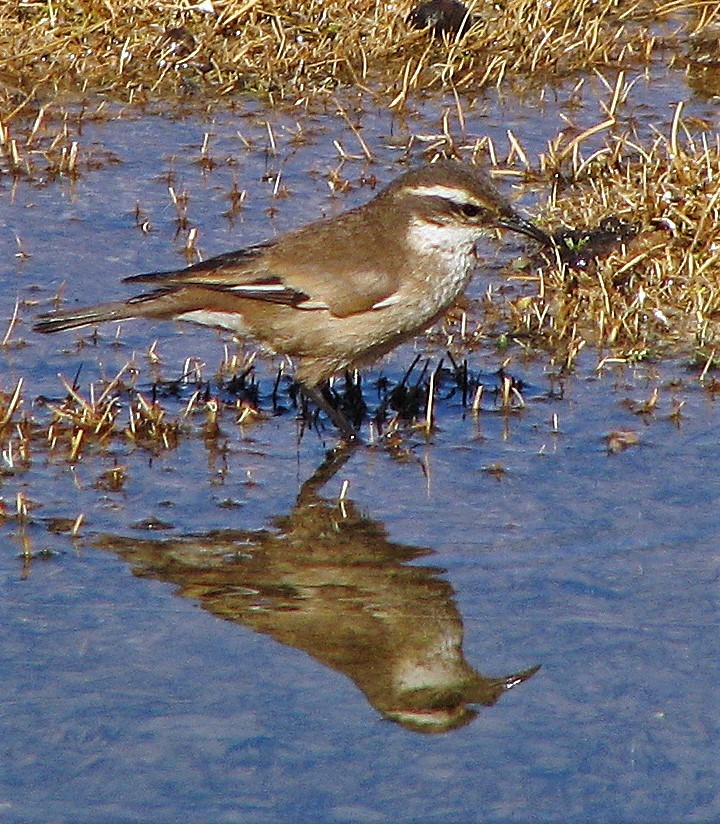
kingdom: Animalia
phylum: Chordata
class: Aves
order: Passeriformes
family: Furnariidae
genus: Cinclodes
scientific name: Cinclodes fuscus
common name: Buff-winged cinclodes
